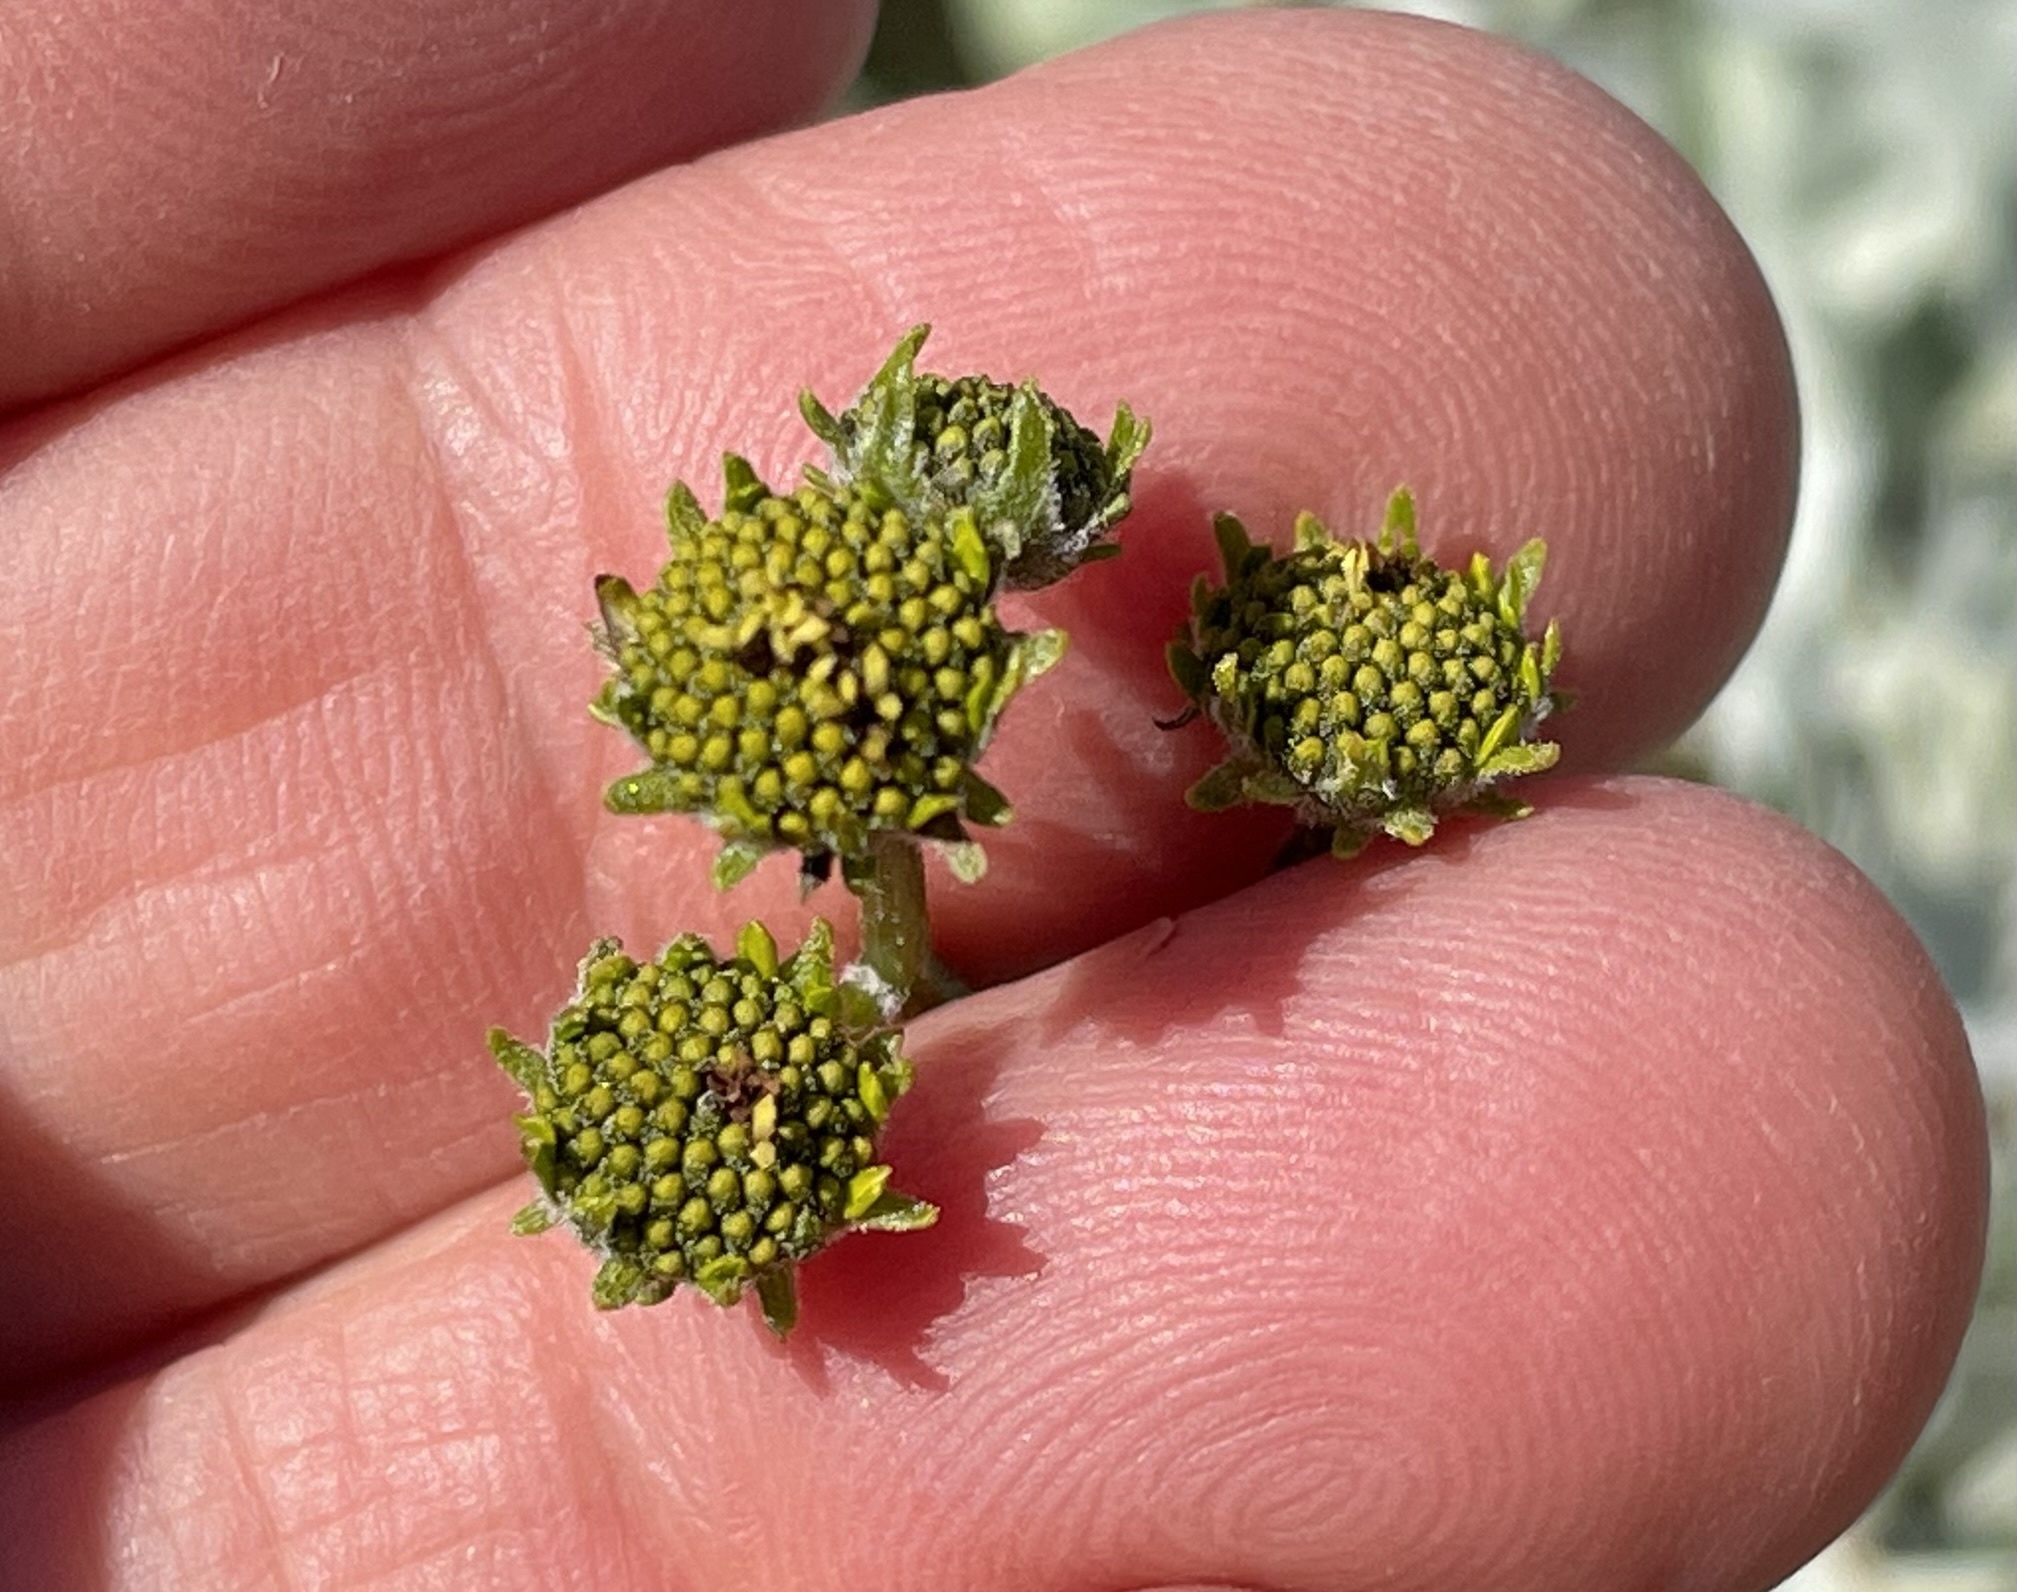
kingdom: Plantae
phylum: Tracheophyta
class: Magnoliopsida
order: Asterales
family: Asteraceae
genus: Encelia
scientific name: Encelia farinosa
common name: Brittlebush
